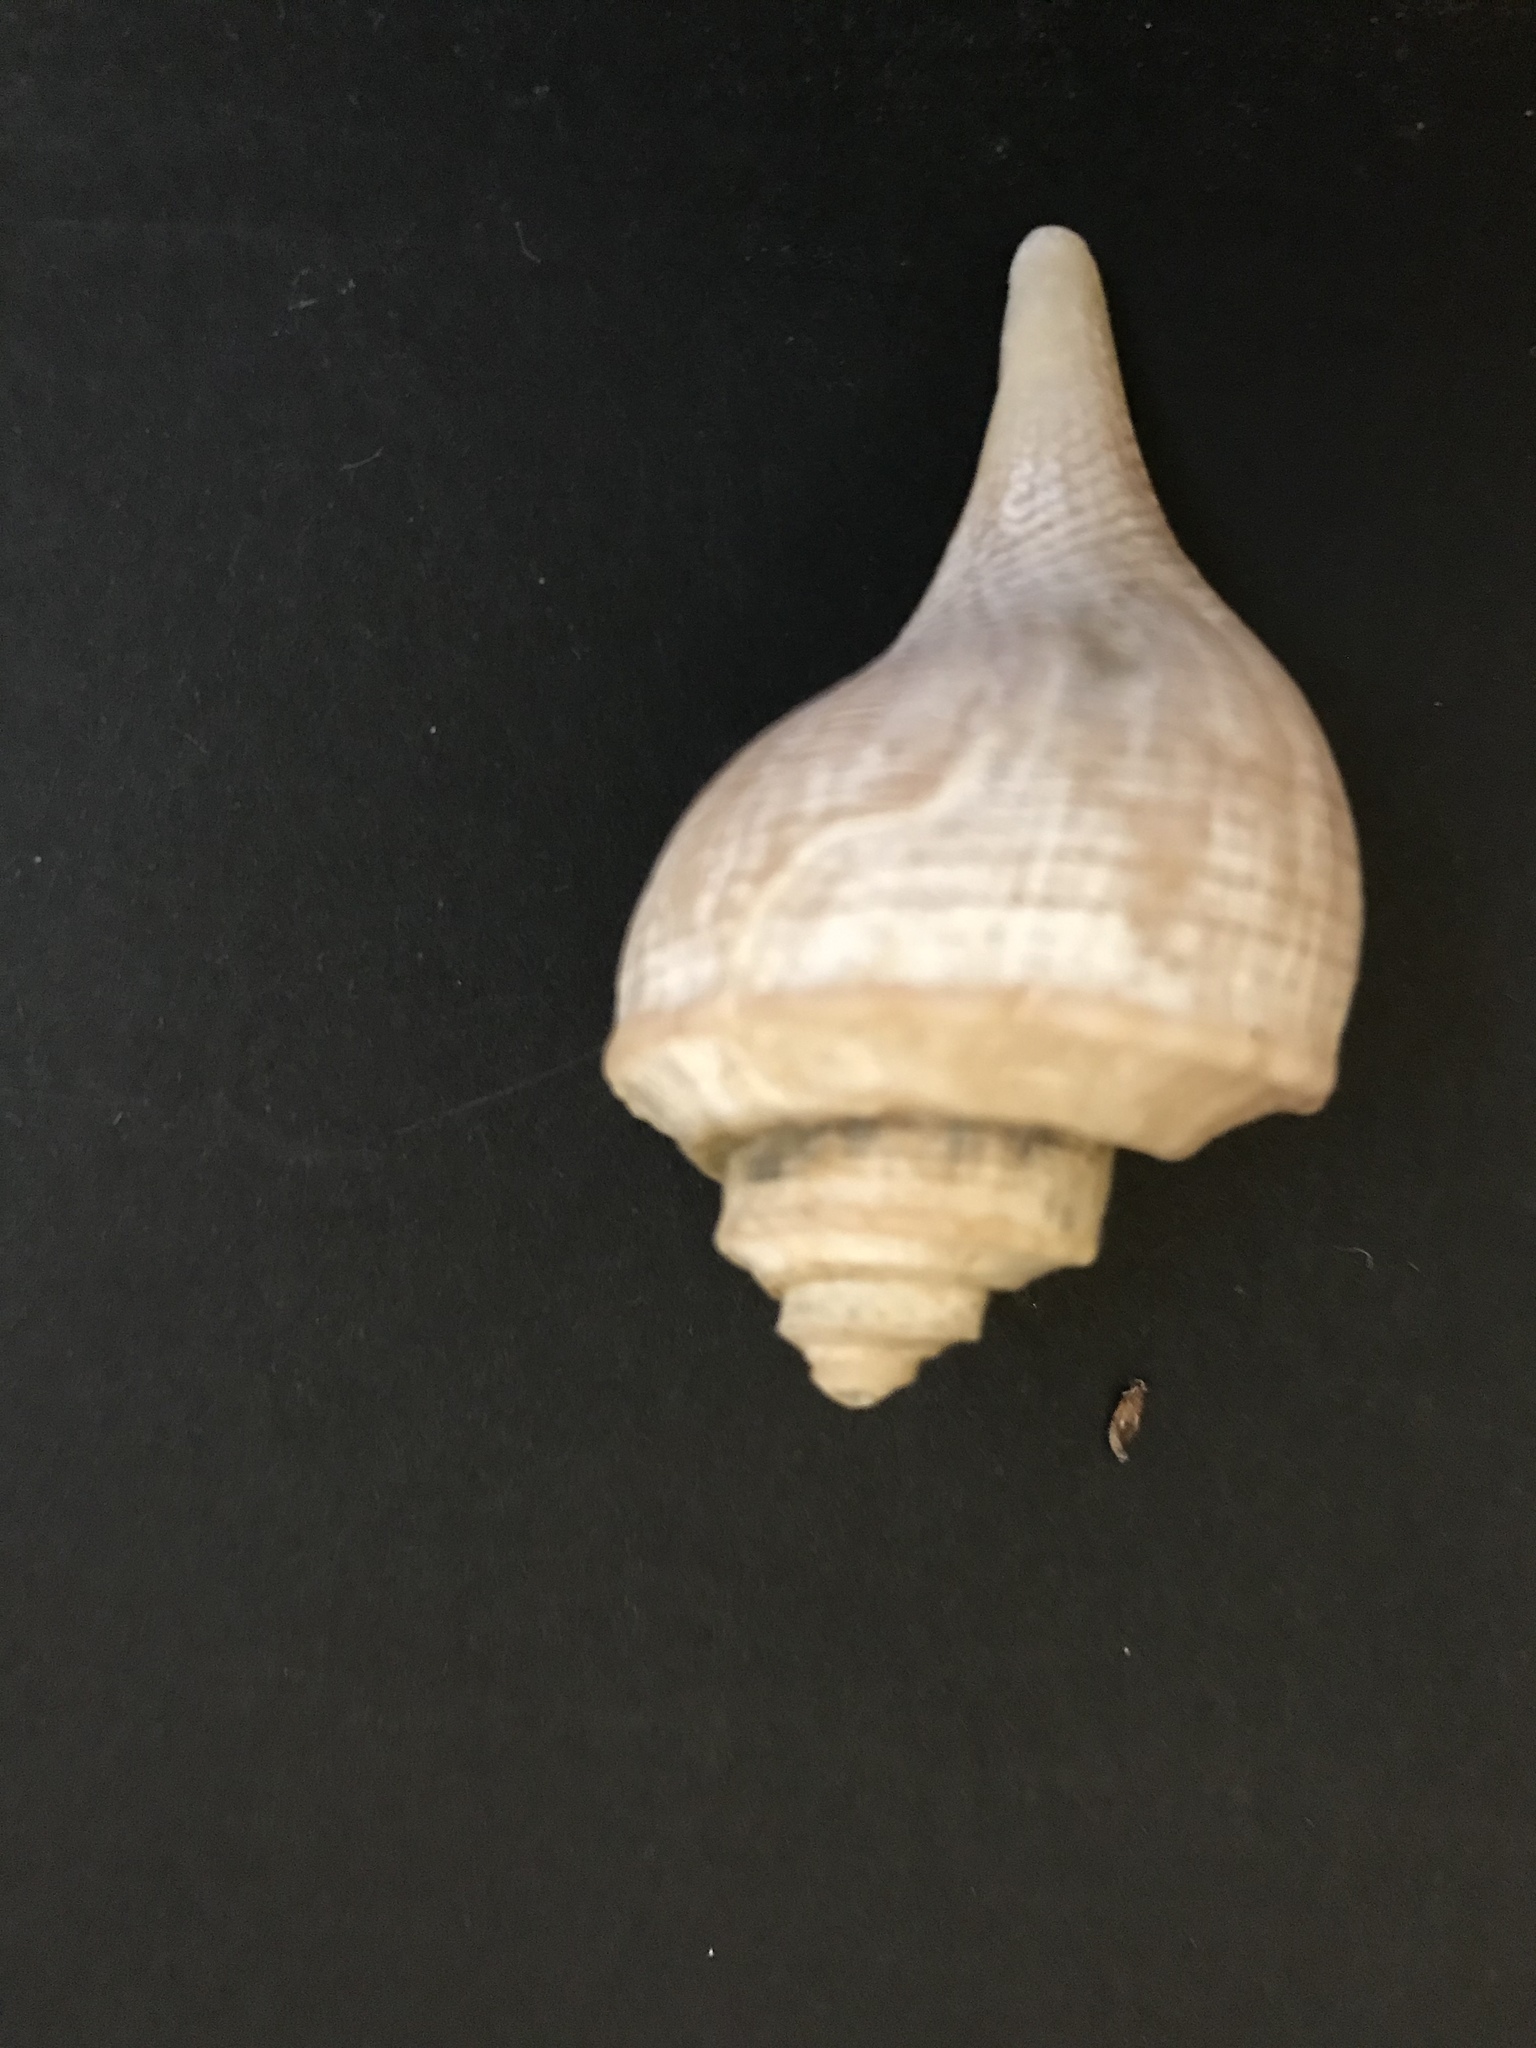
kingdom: Animalia
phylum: Mollusca
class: Gastropoda
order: Neogastropoda
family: Busyconidae
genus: Busycotypus
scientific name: Busycotypus canaliculatus
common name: Channeled whelk
